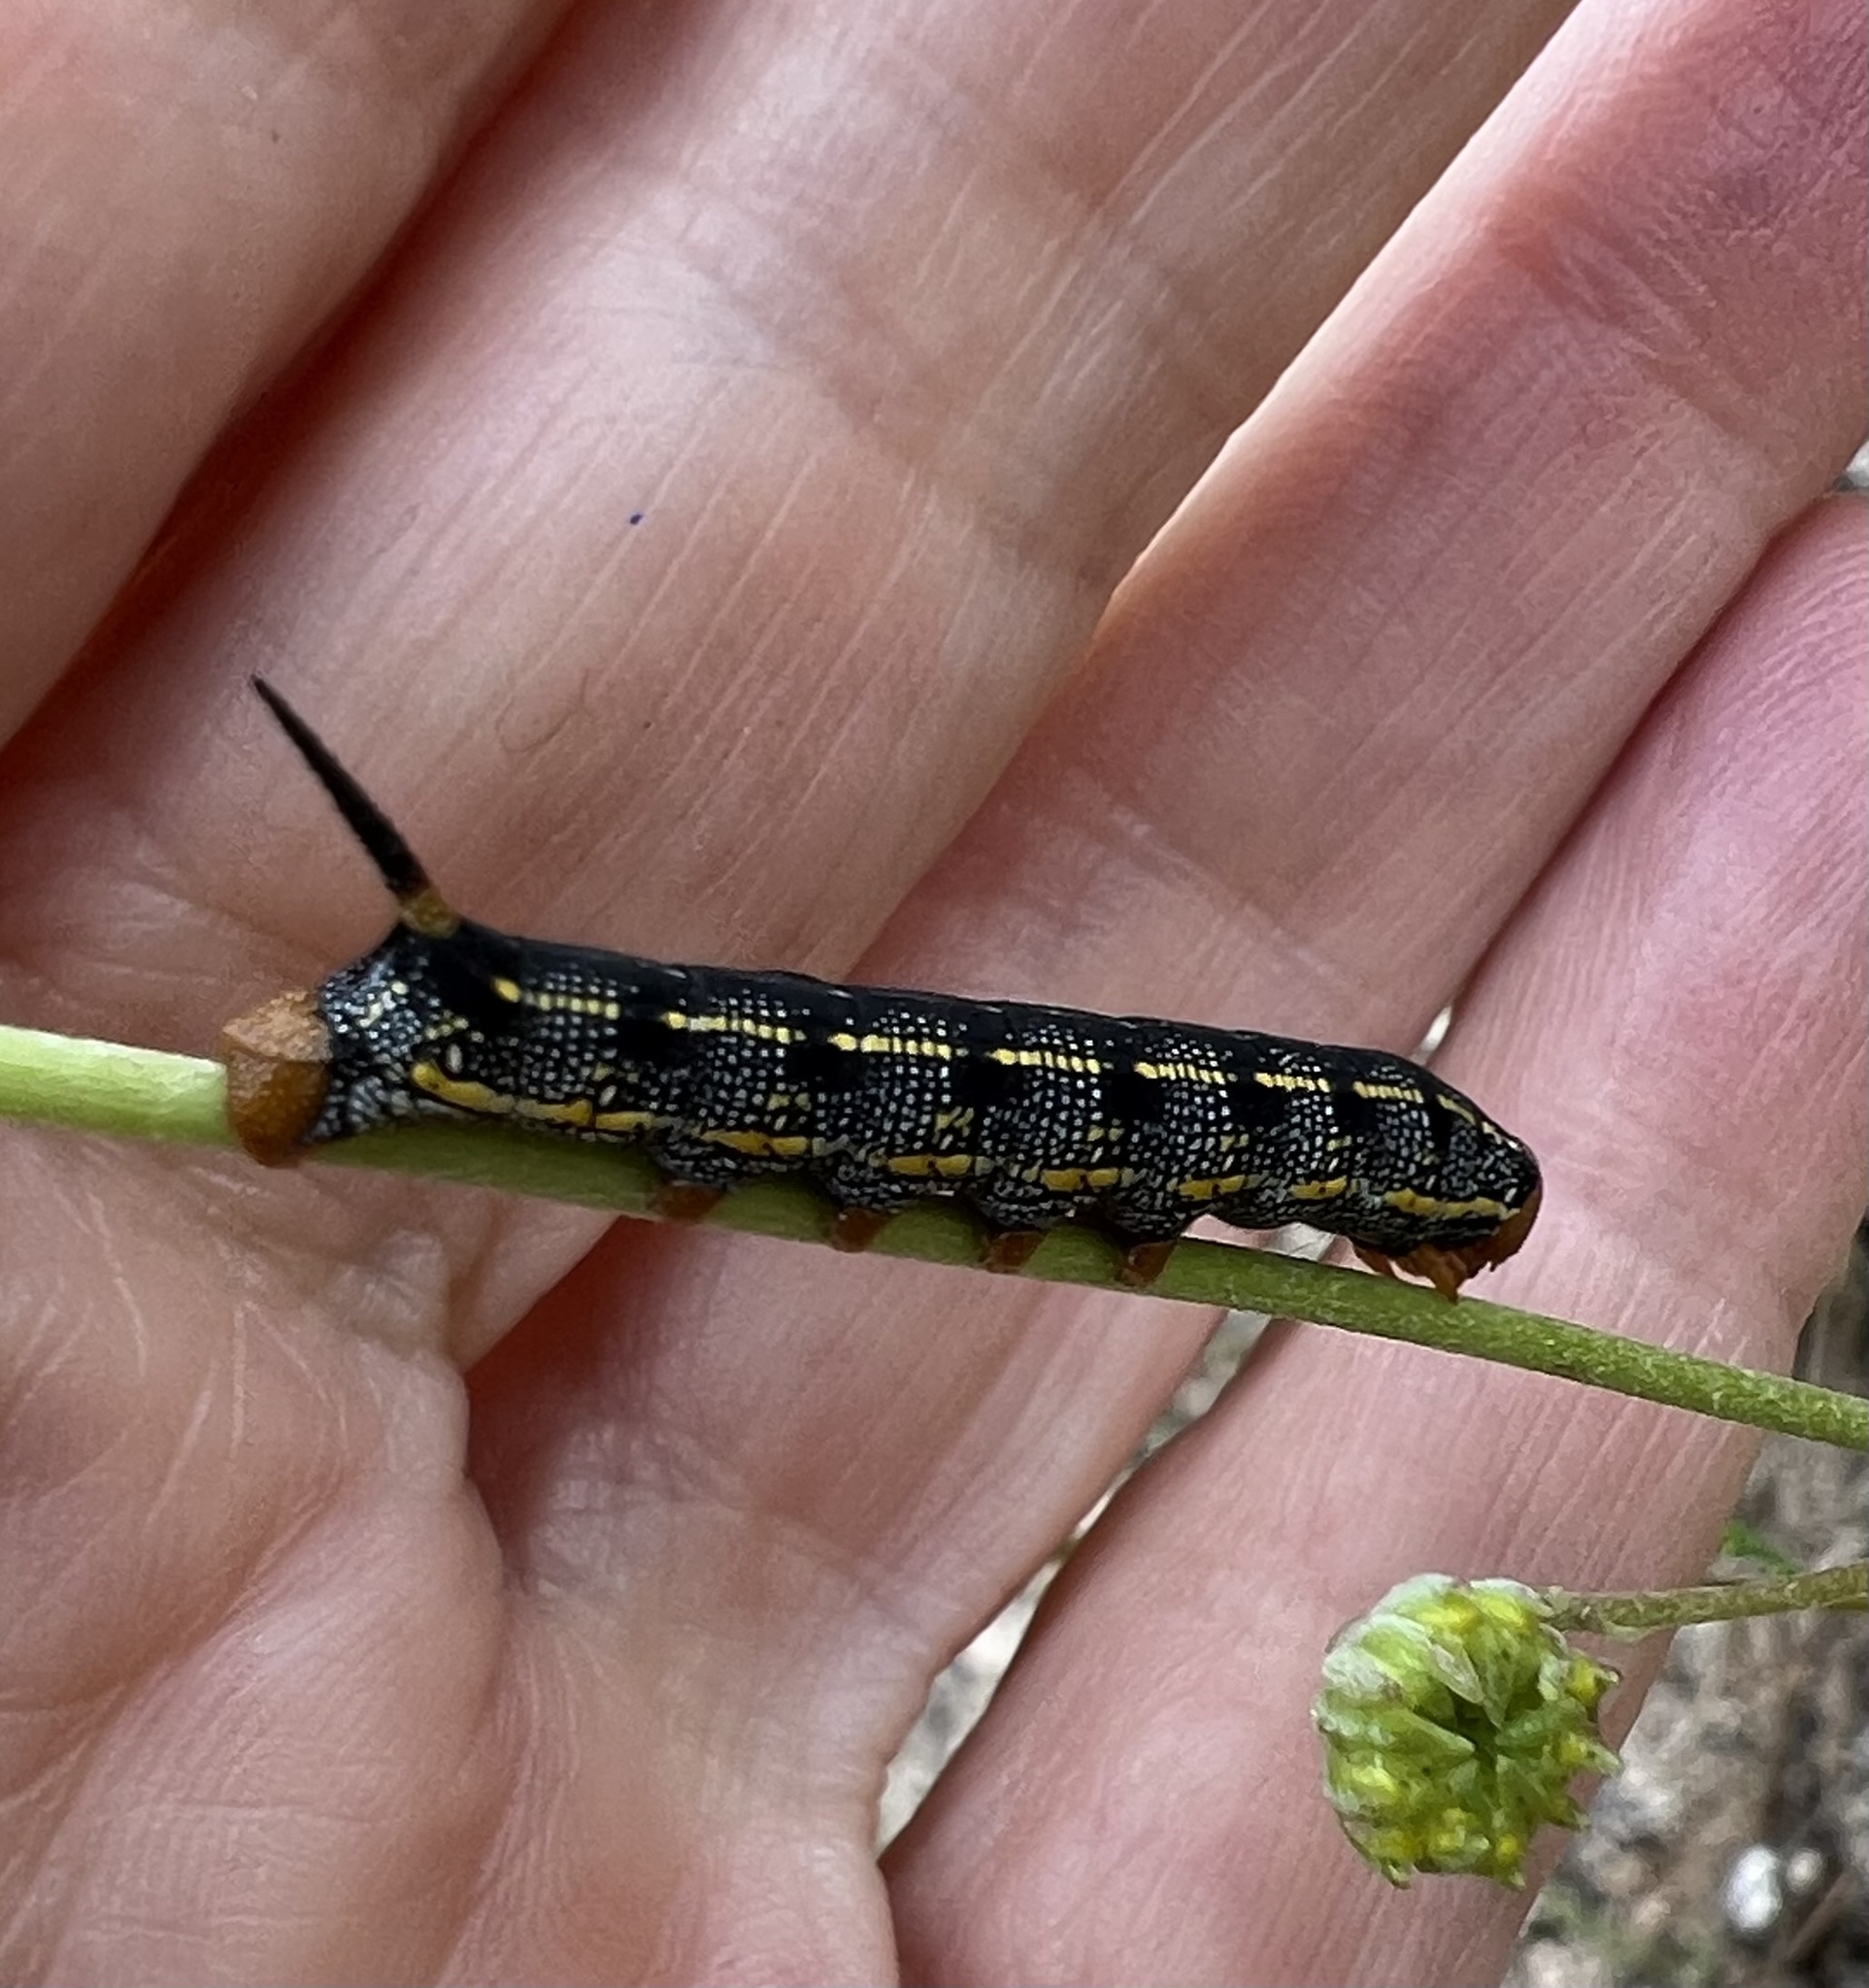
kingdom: Animalia
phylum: Arthropoda
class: Insecta
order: Lepidoptera
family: Sphingidae
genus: Hyles
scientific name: Hyles lineata
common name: White-lined sphinx
